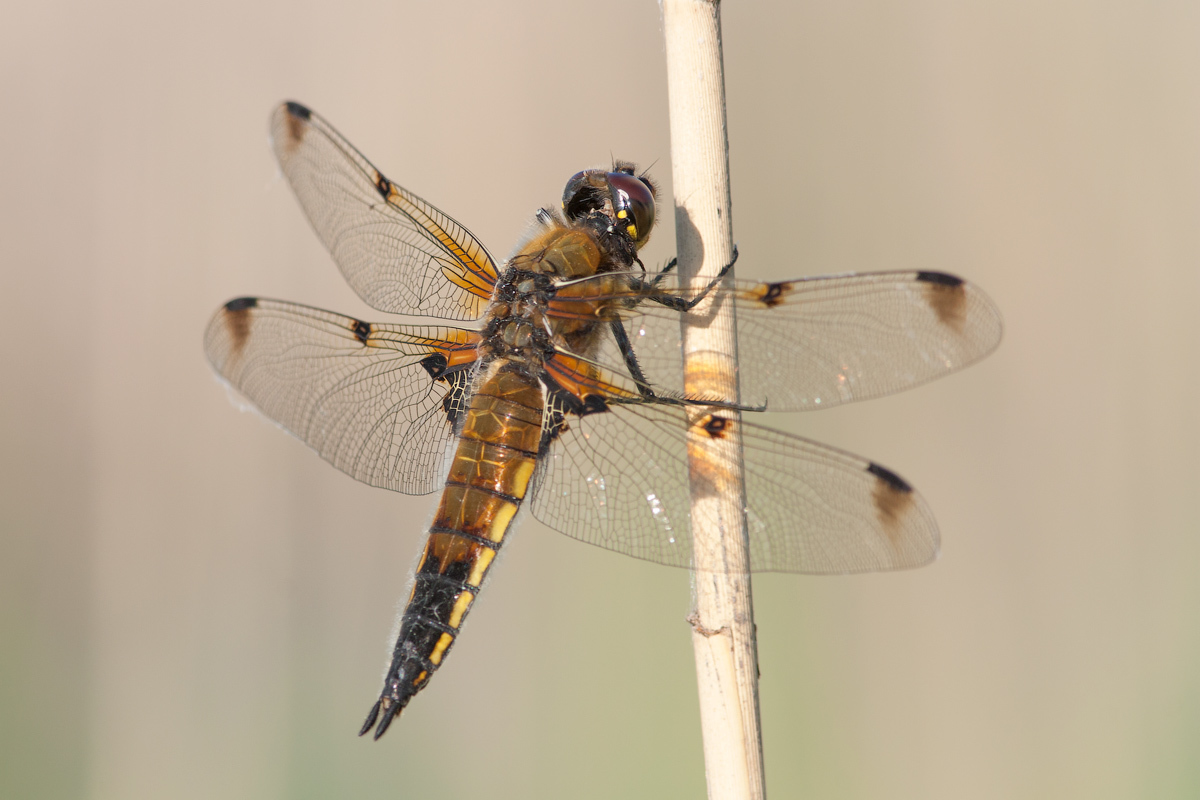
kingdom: Animalia
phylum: Arthropoda
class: Insecta
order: Odonata
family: Libellulidae
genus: Libellula
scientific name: Libellula quadrimaculata
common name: Four-spotted chaser
